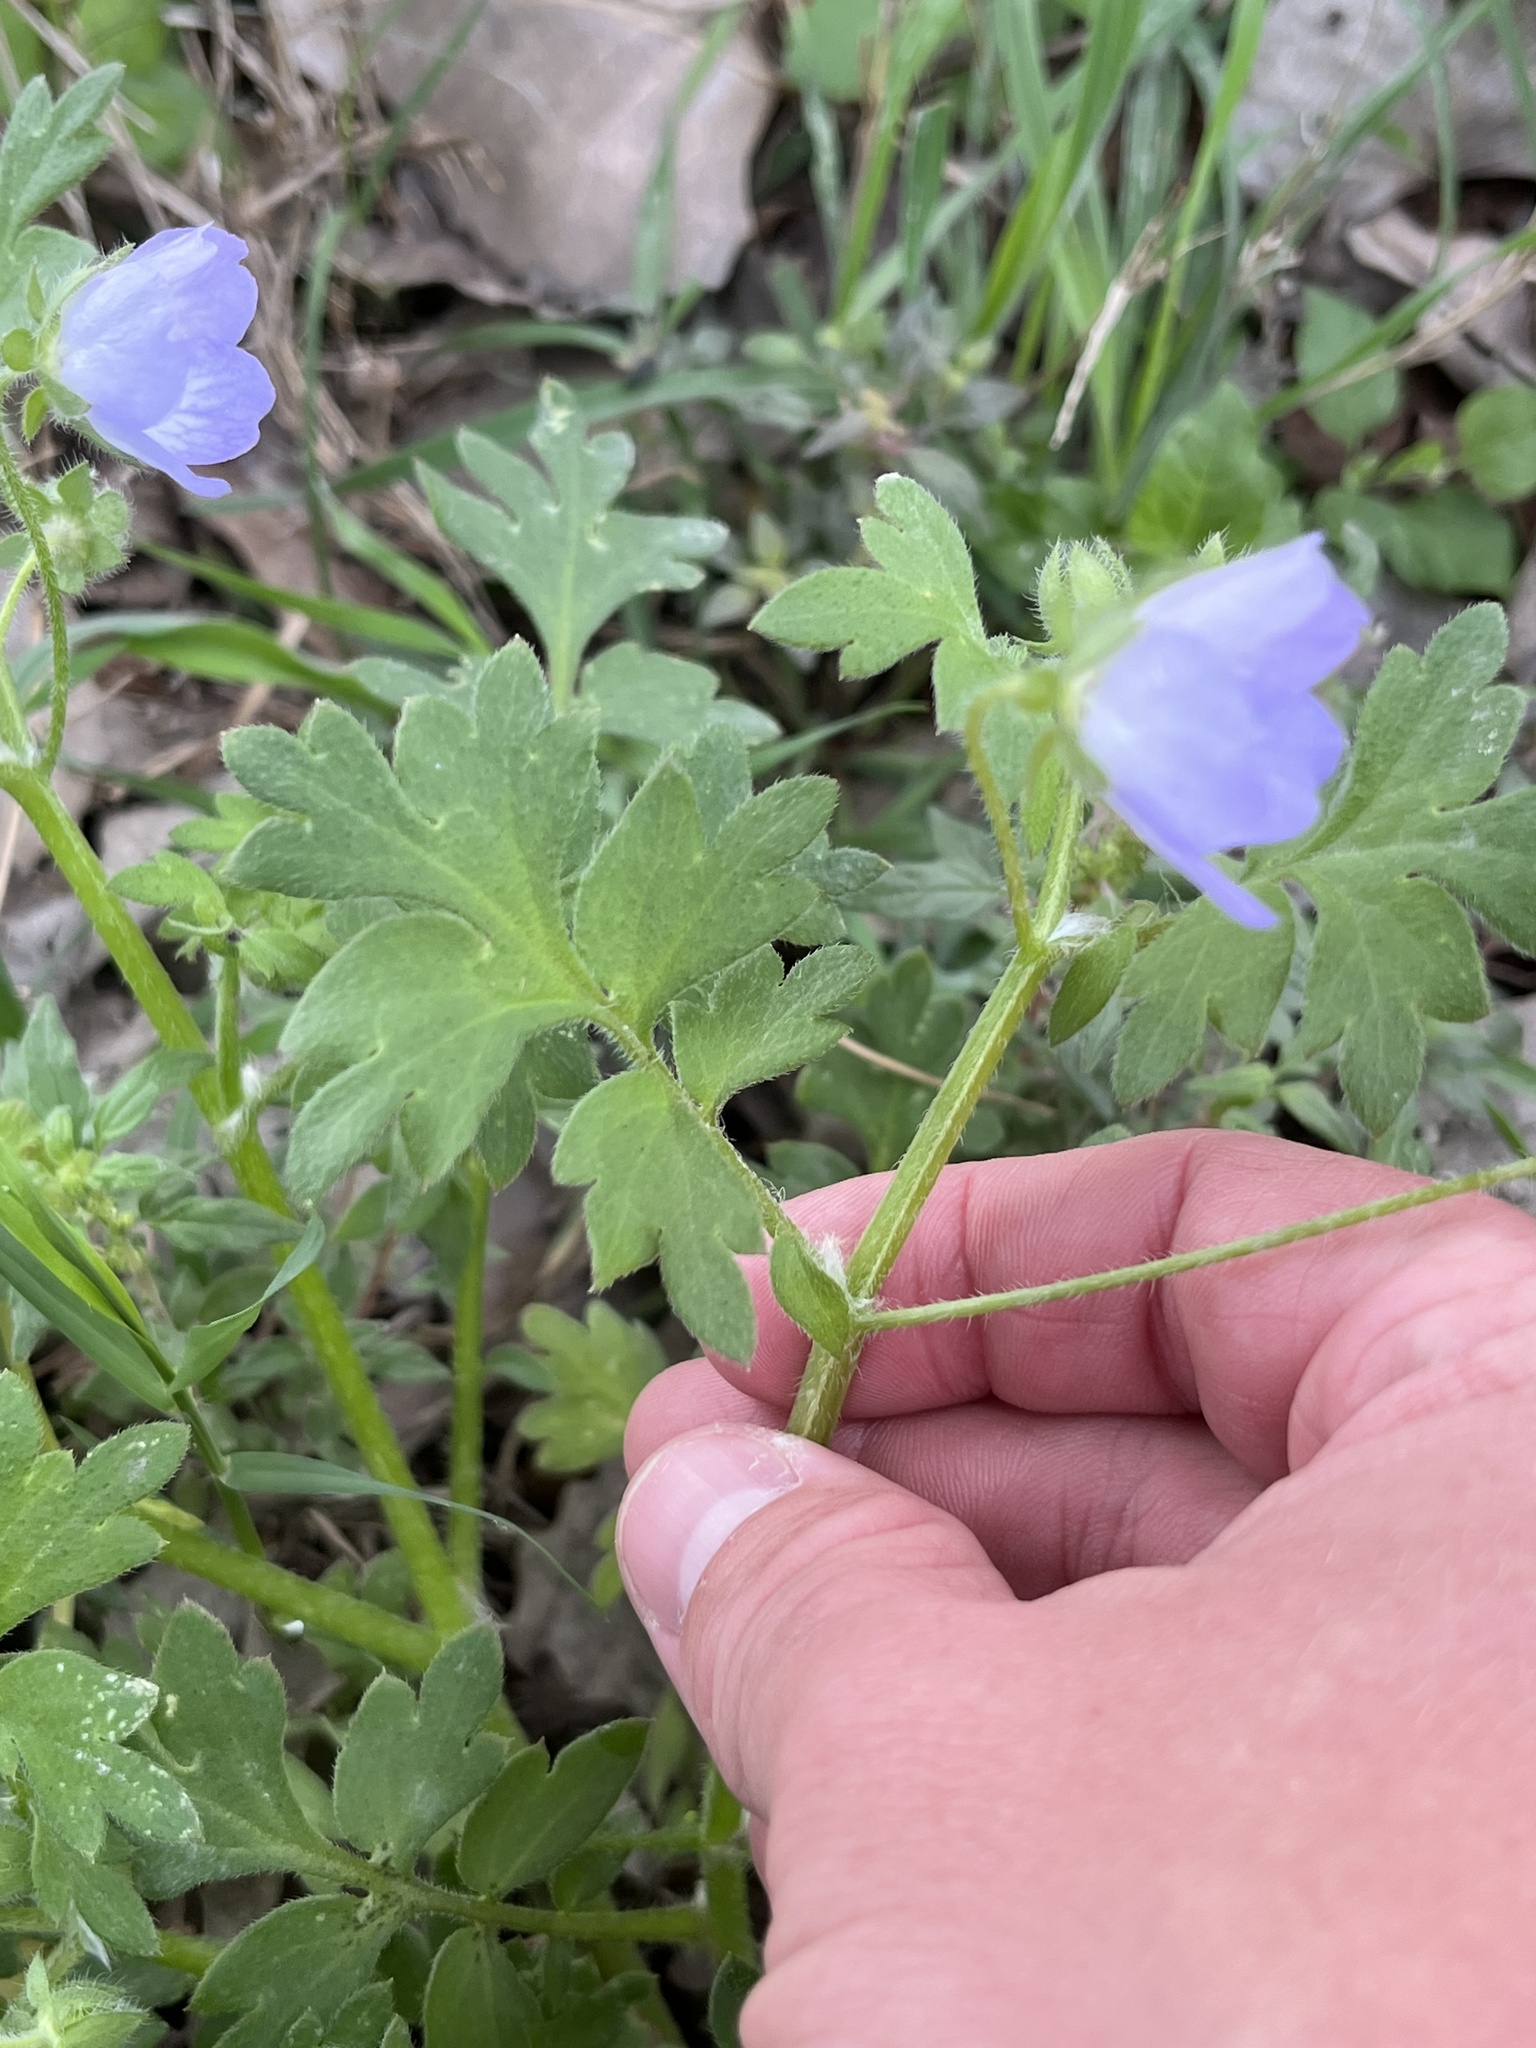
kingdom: Plantae
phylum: Tracheophyta
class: Magnoliopsida
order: Boraginales
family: Hydrophyllaceae
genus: Nemophila
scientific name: Nemophila phacelioides
